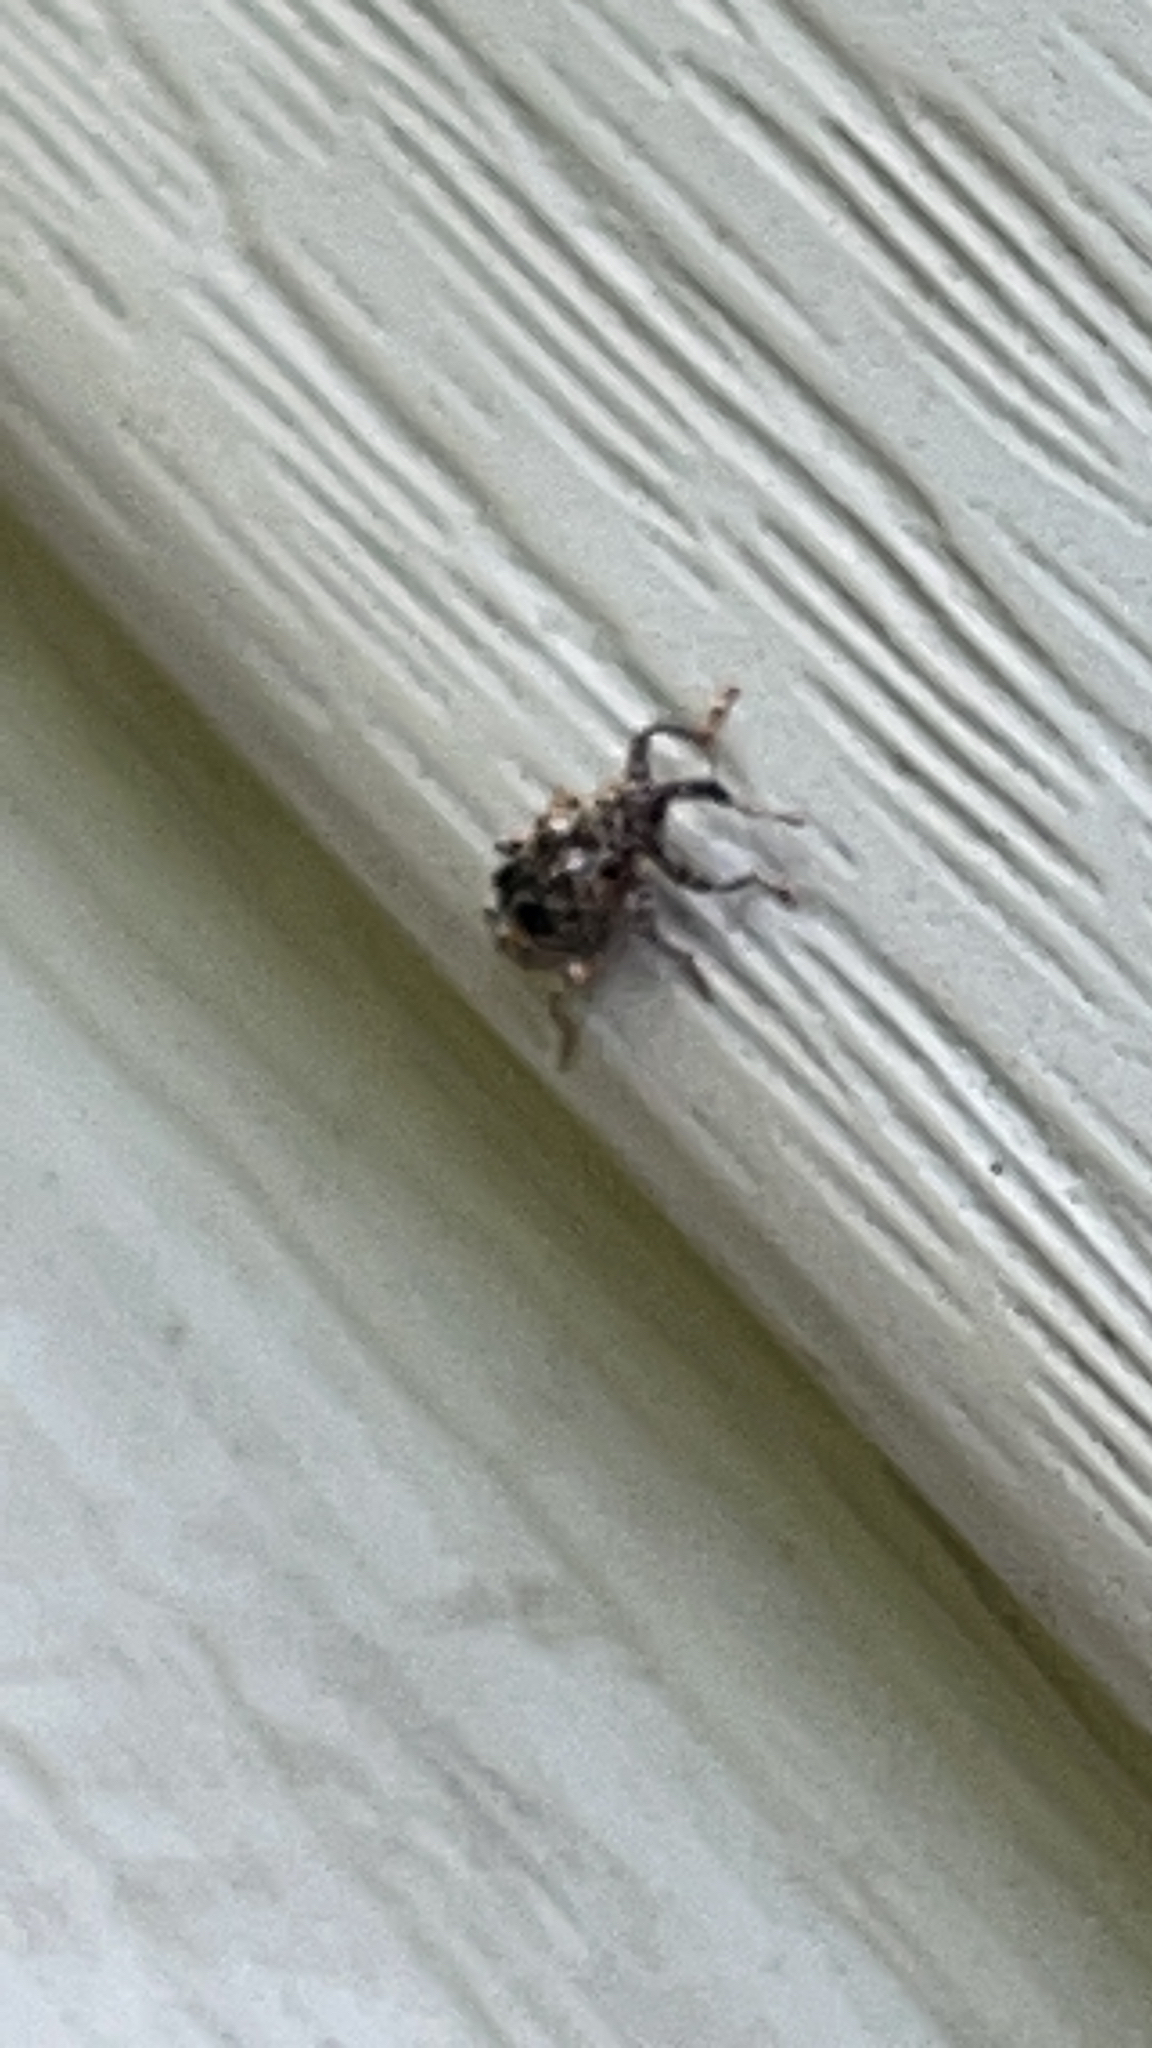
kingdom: Animalia
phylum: Arthropoda
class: Insecta
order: Coleoptera
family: Curculionidae
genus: Conotrachelus
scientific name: Conotrachelus nenuphar
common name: Plum curculio
